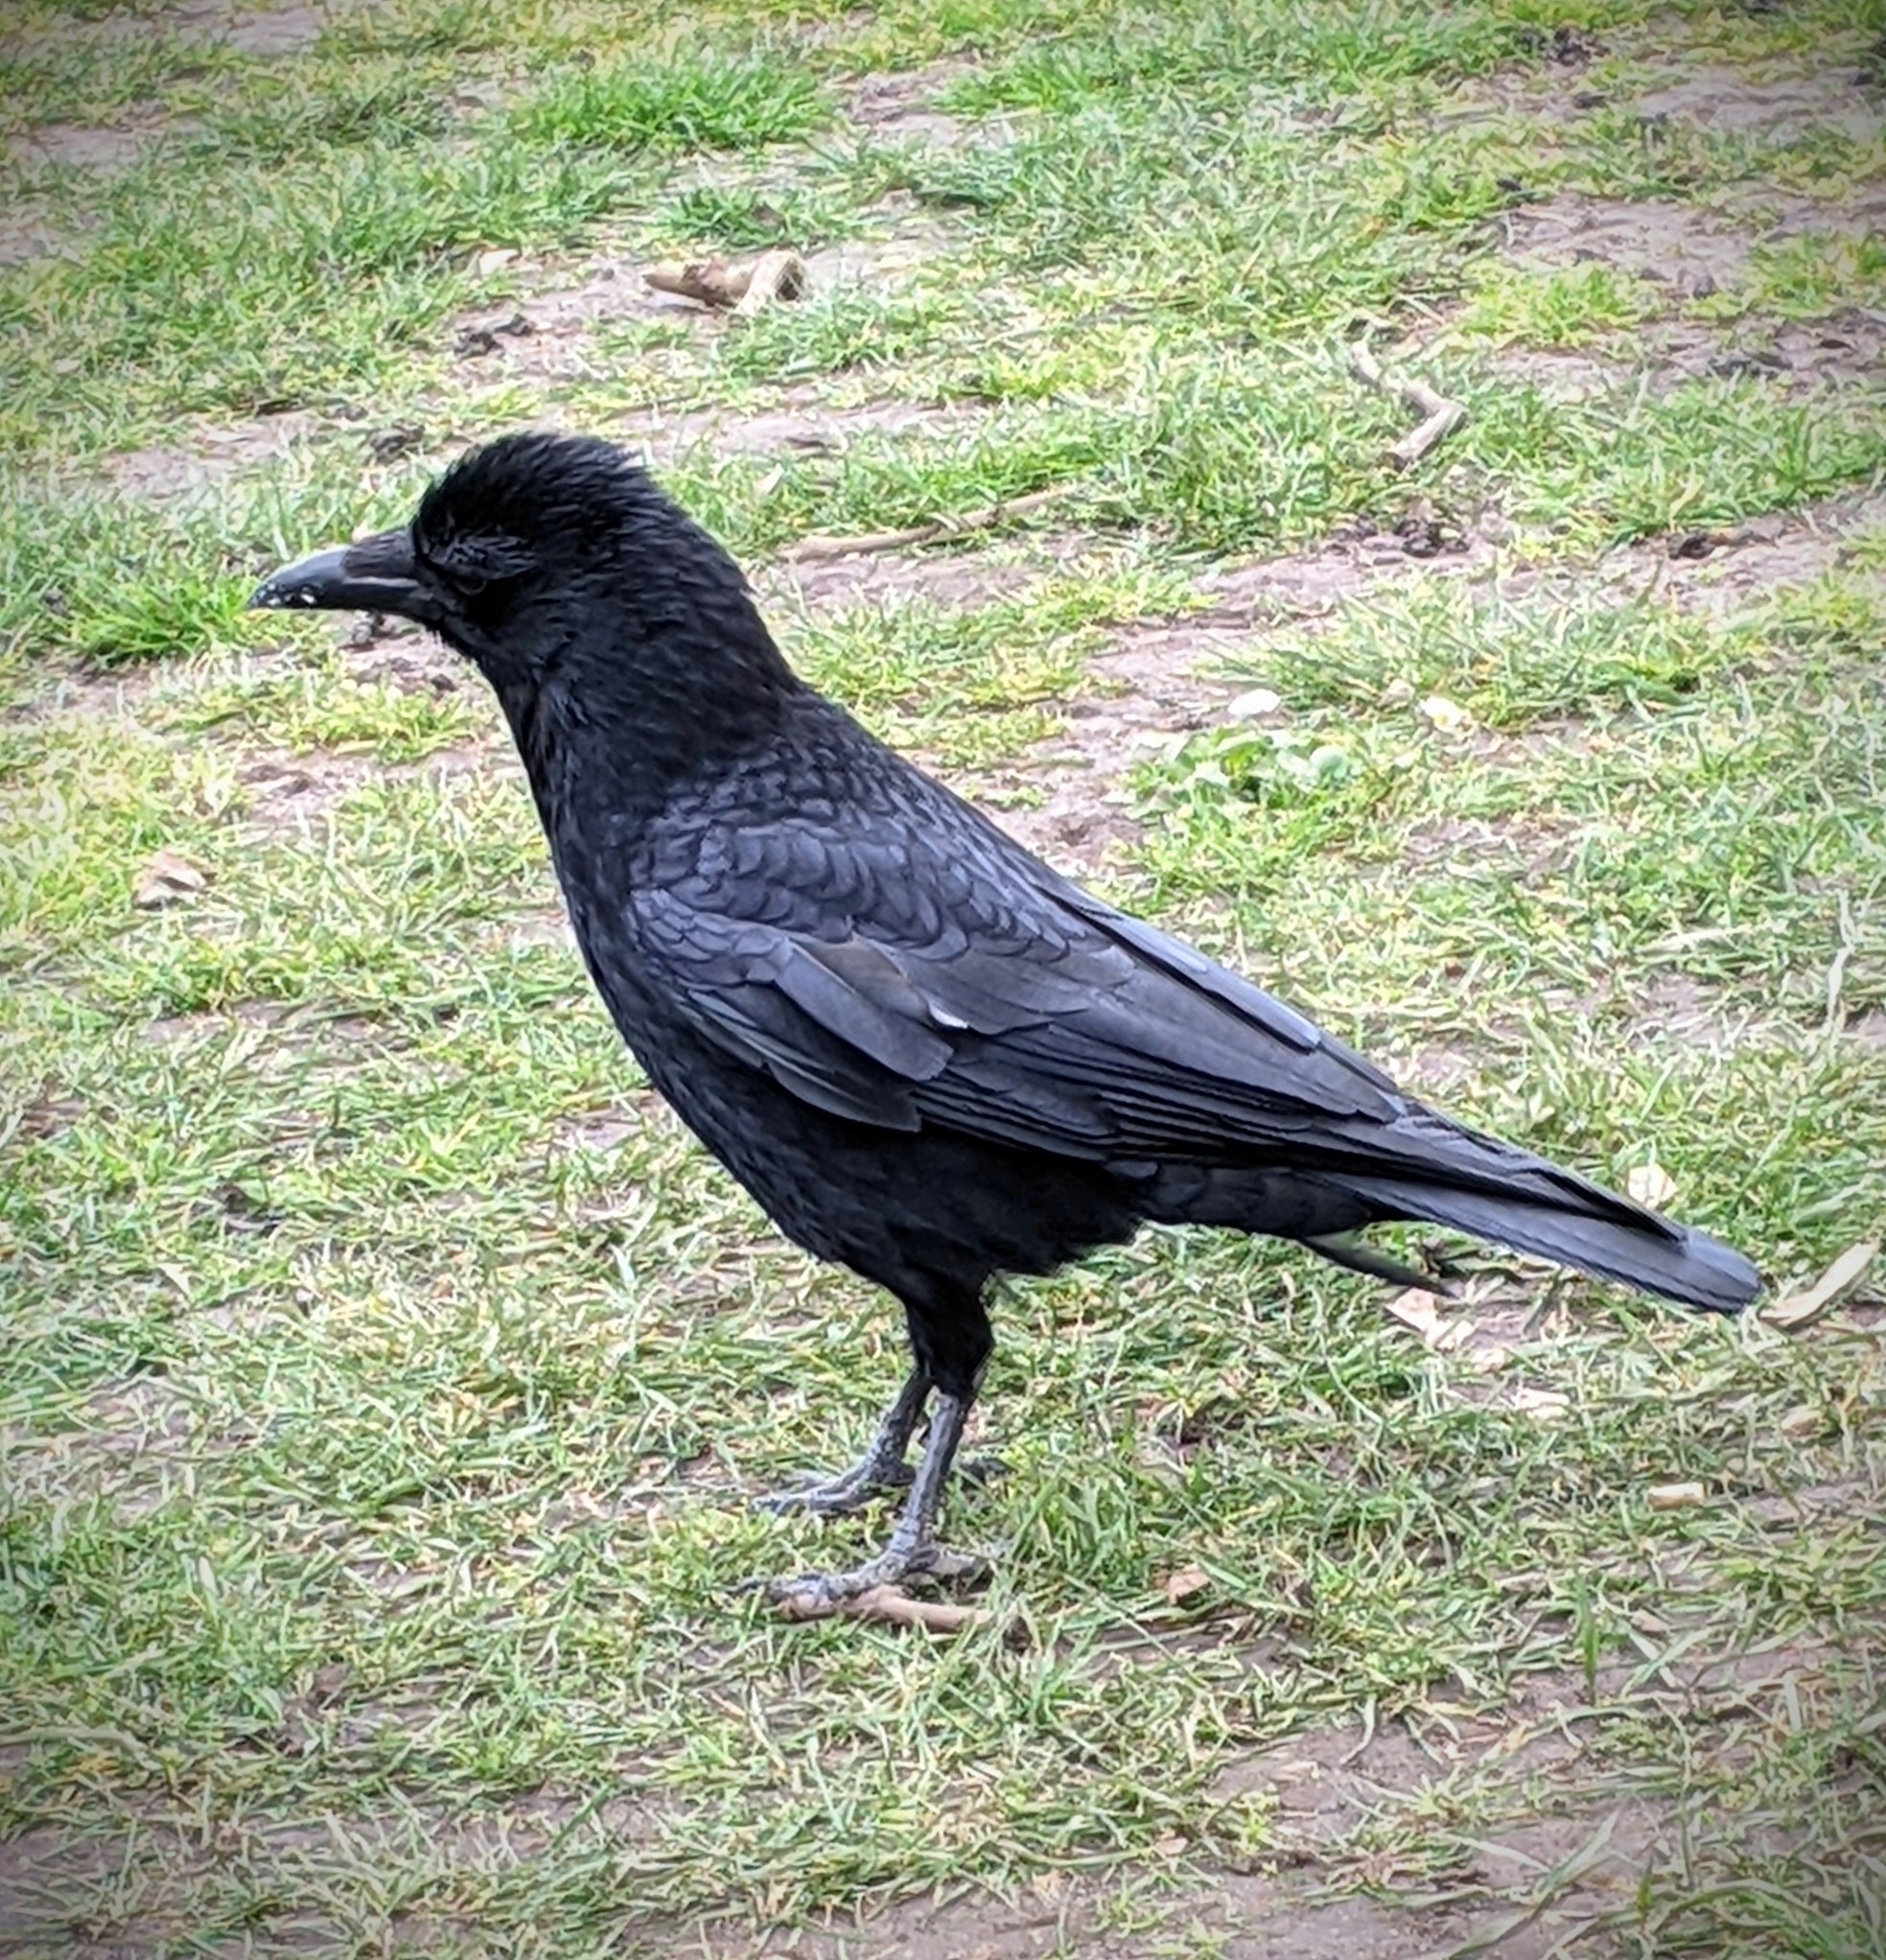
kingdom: Animalia
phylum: Chordata
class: Aves
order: Passeriformes
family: Corvidae
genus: Corvus
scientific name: Corvus corone
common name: Carrion crow
